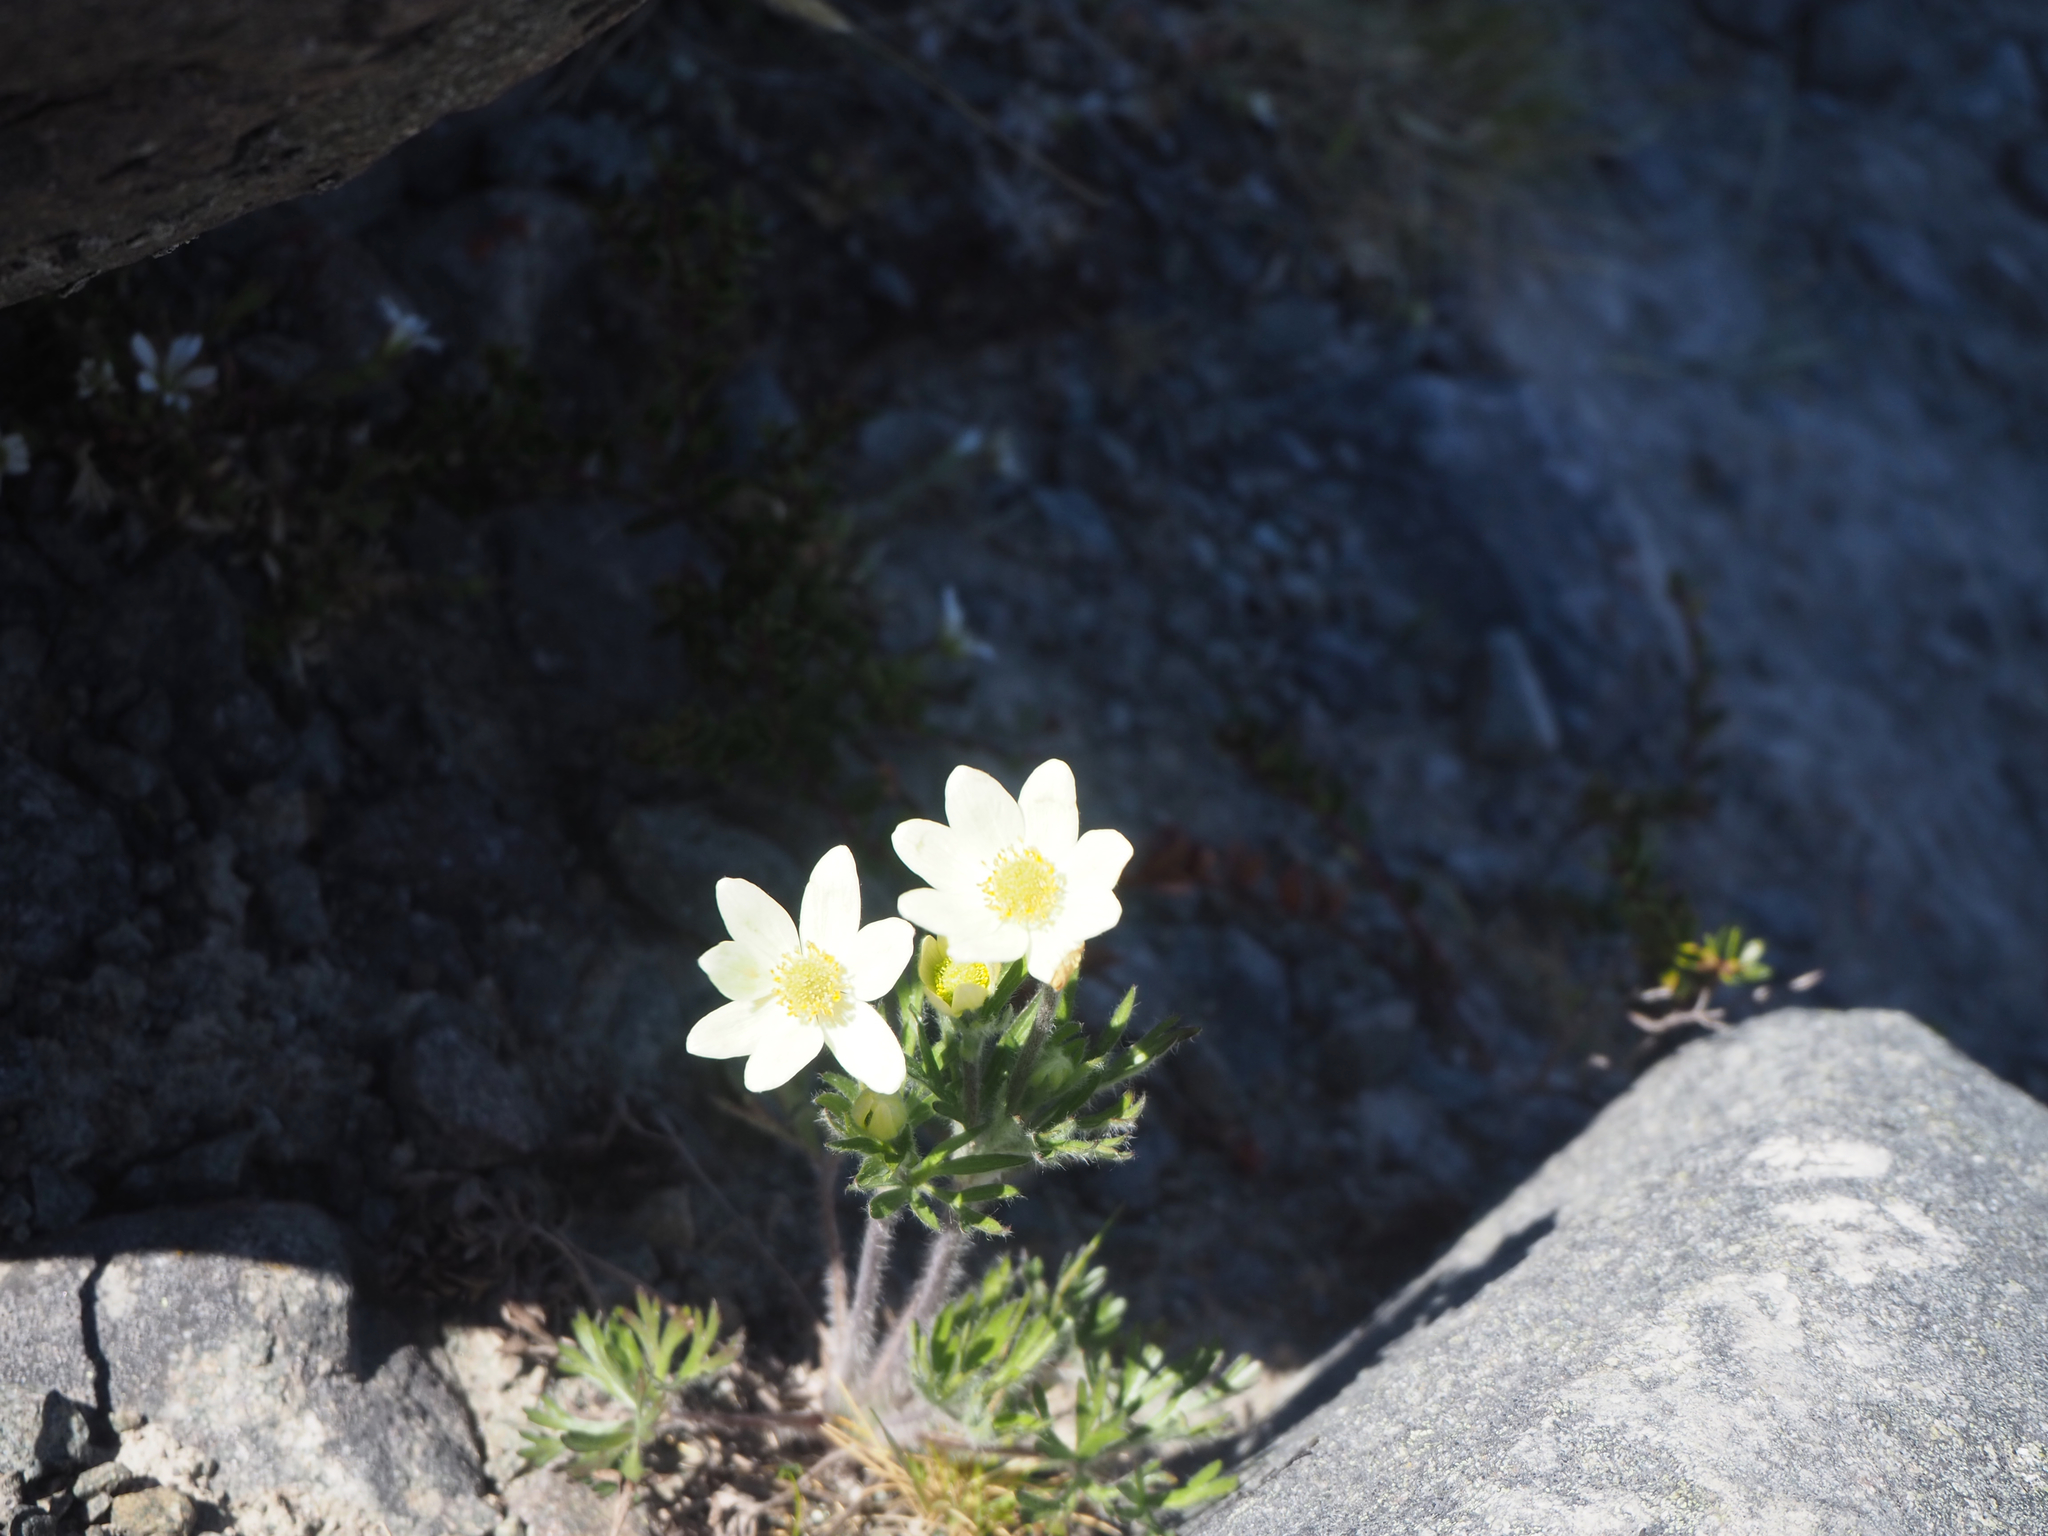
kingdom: Plantae
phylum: Tracheophyta
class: Magnoliopsida
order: Ranunculales
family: Ranunculaceae
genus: Anemone
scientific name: Anemone multifida
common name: Bird's-foot anemone
